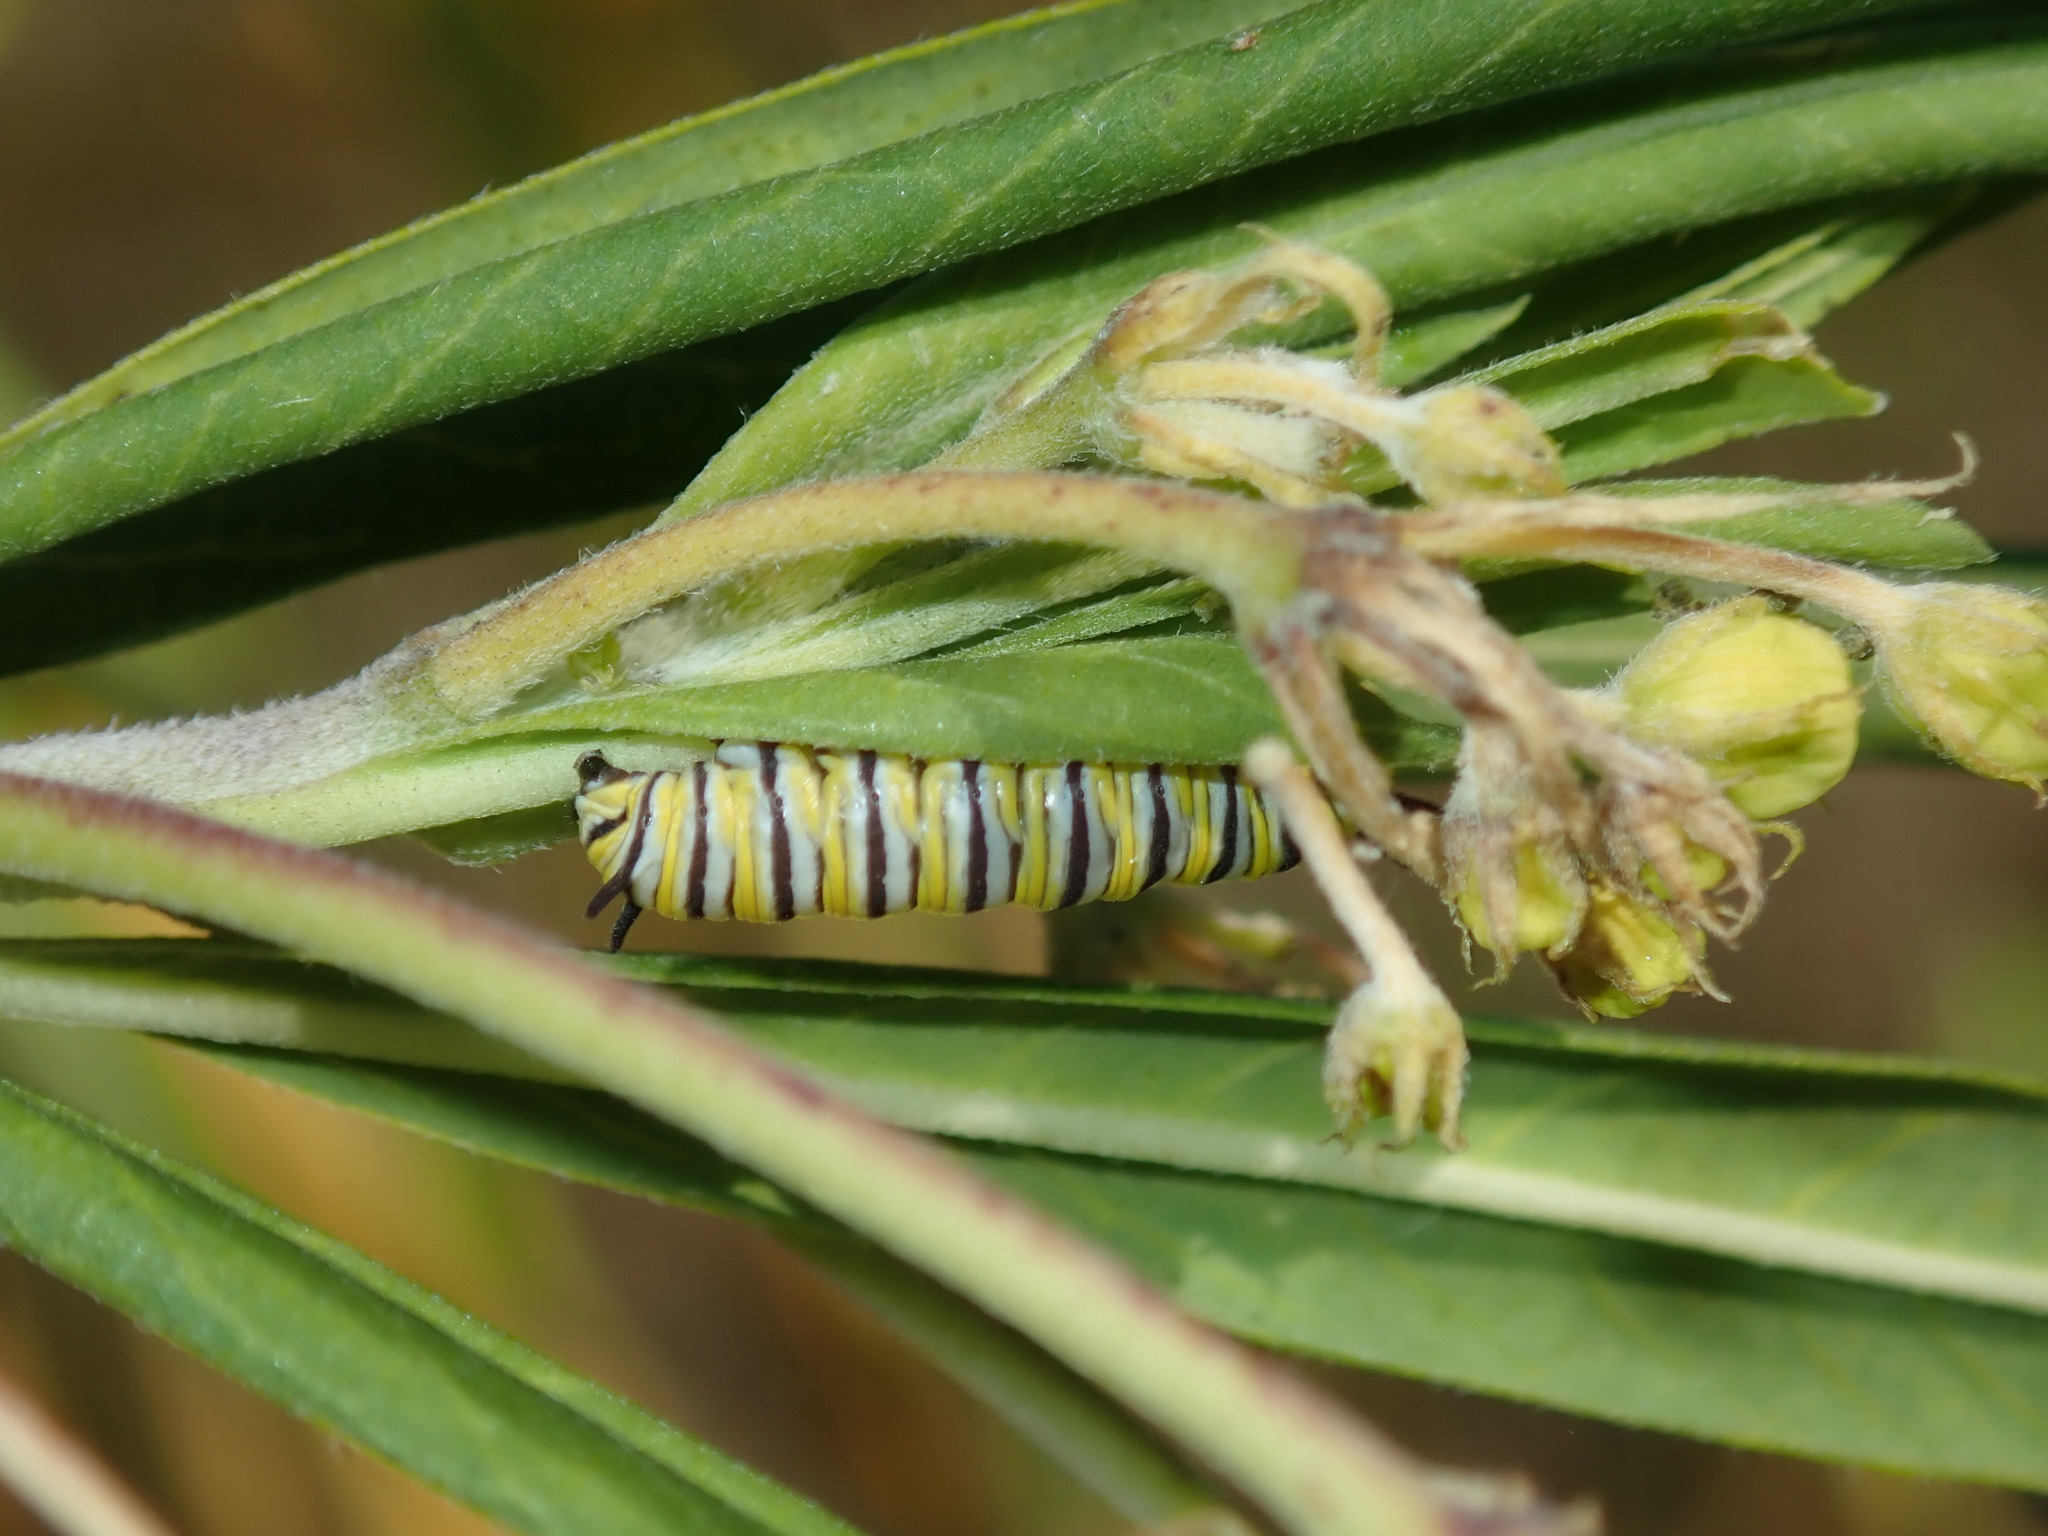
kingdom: Animalia
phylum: Arthropoda
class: Insecta
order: Lepidoptera
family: Nymphalidae
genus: Danaus
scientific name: Danaus plexippus
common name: Monarch
